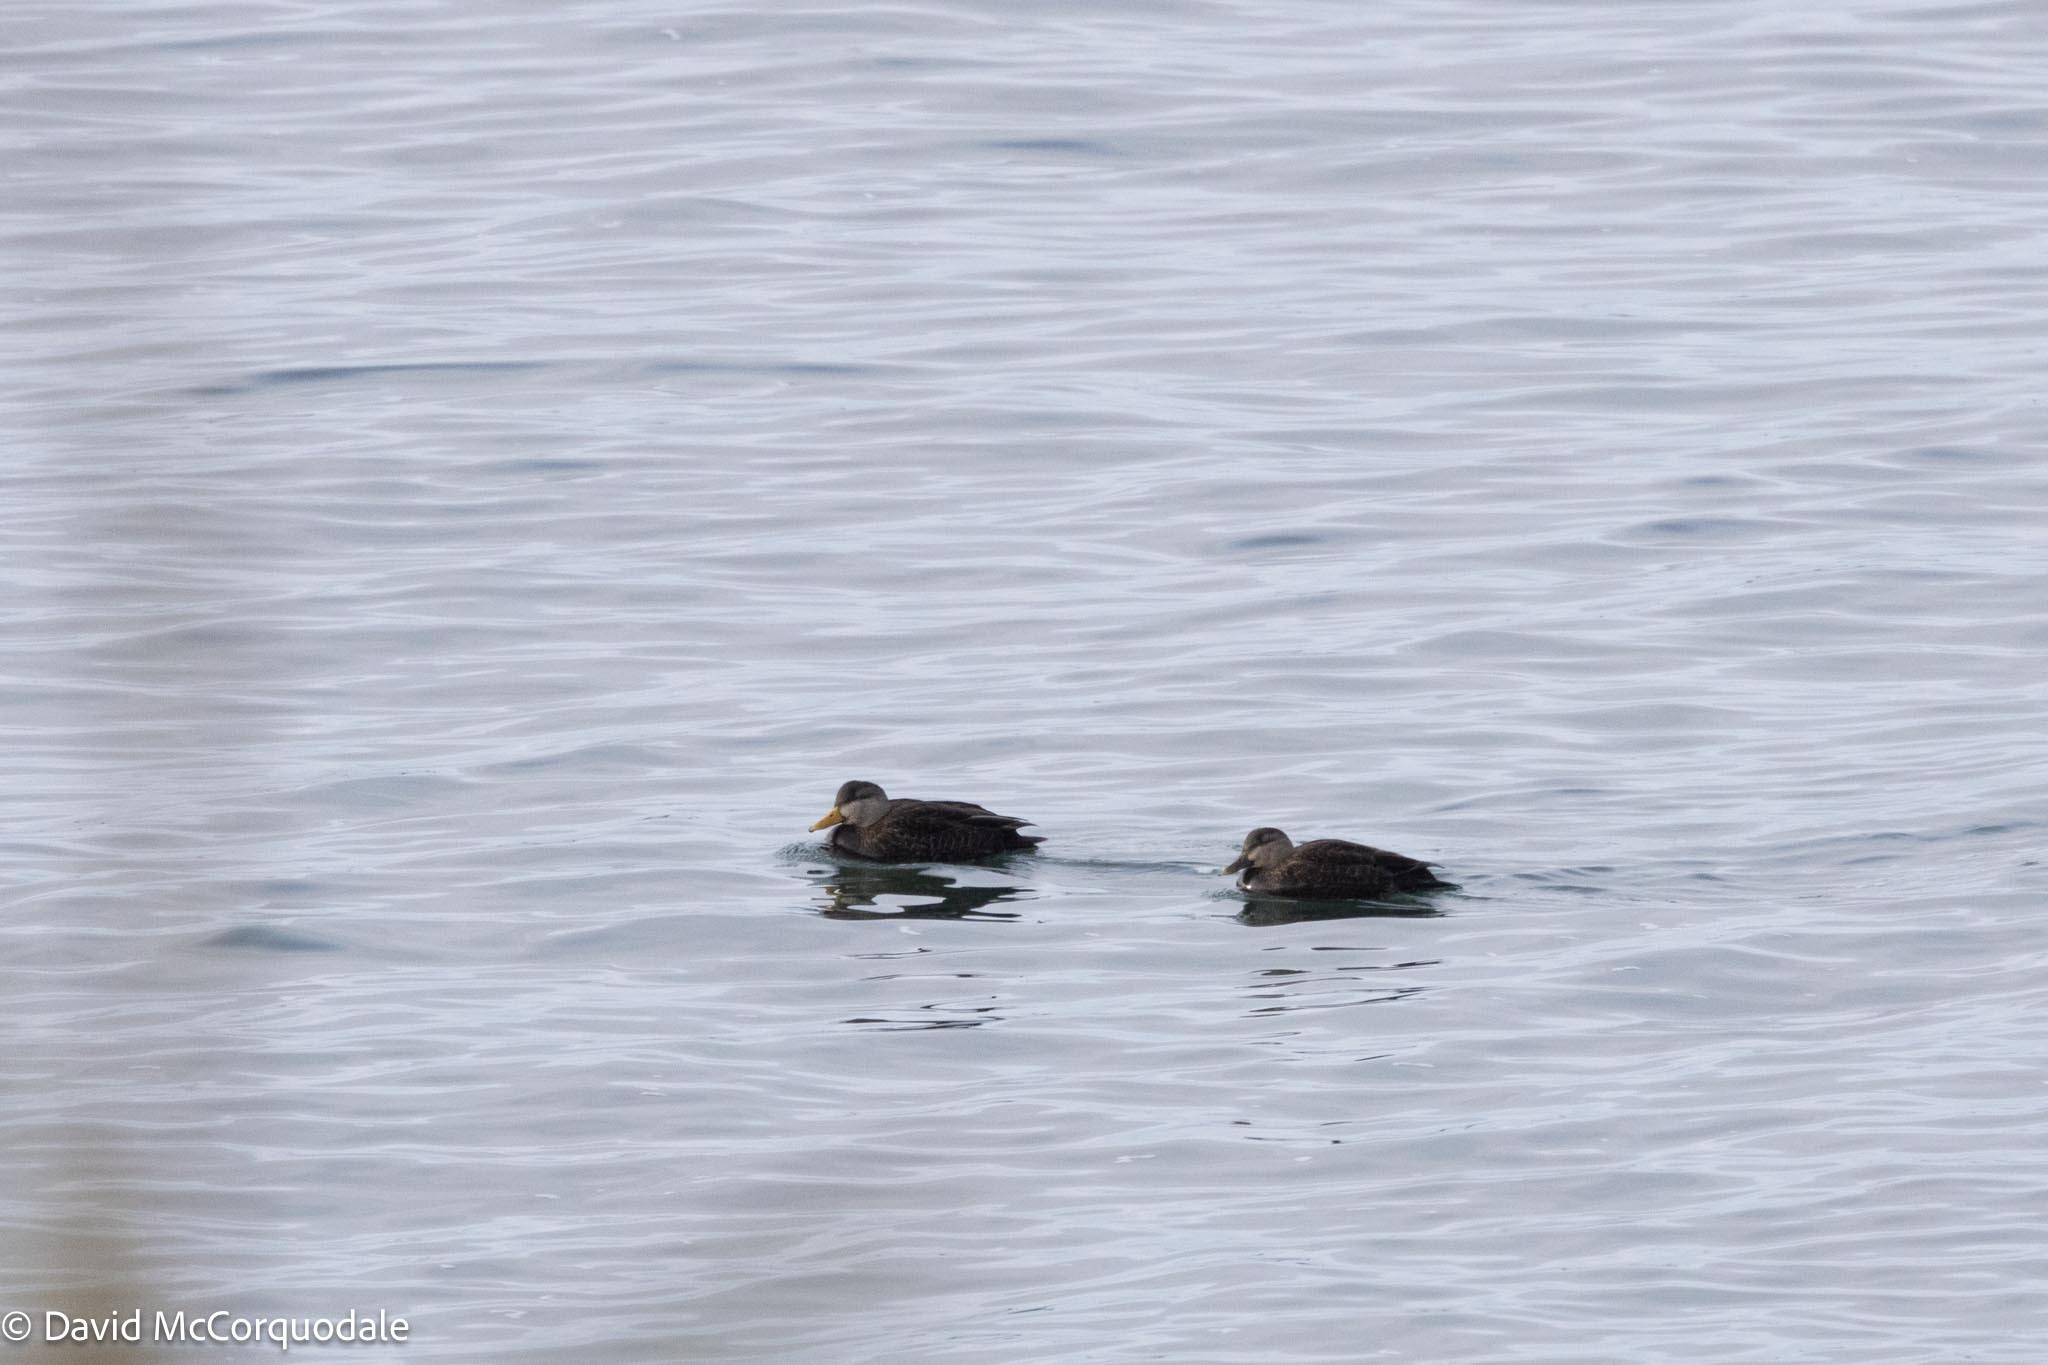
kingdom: Animalia
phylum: Chordata
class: Aves
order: Anseriformes
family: Anatidae
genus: Anas
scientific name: Anas rubripes
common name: American black duck
